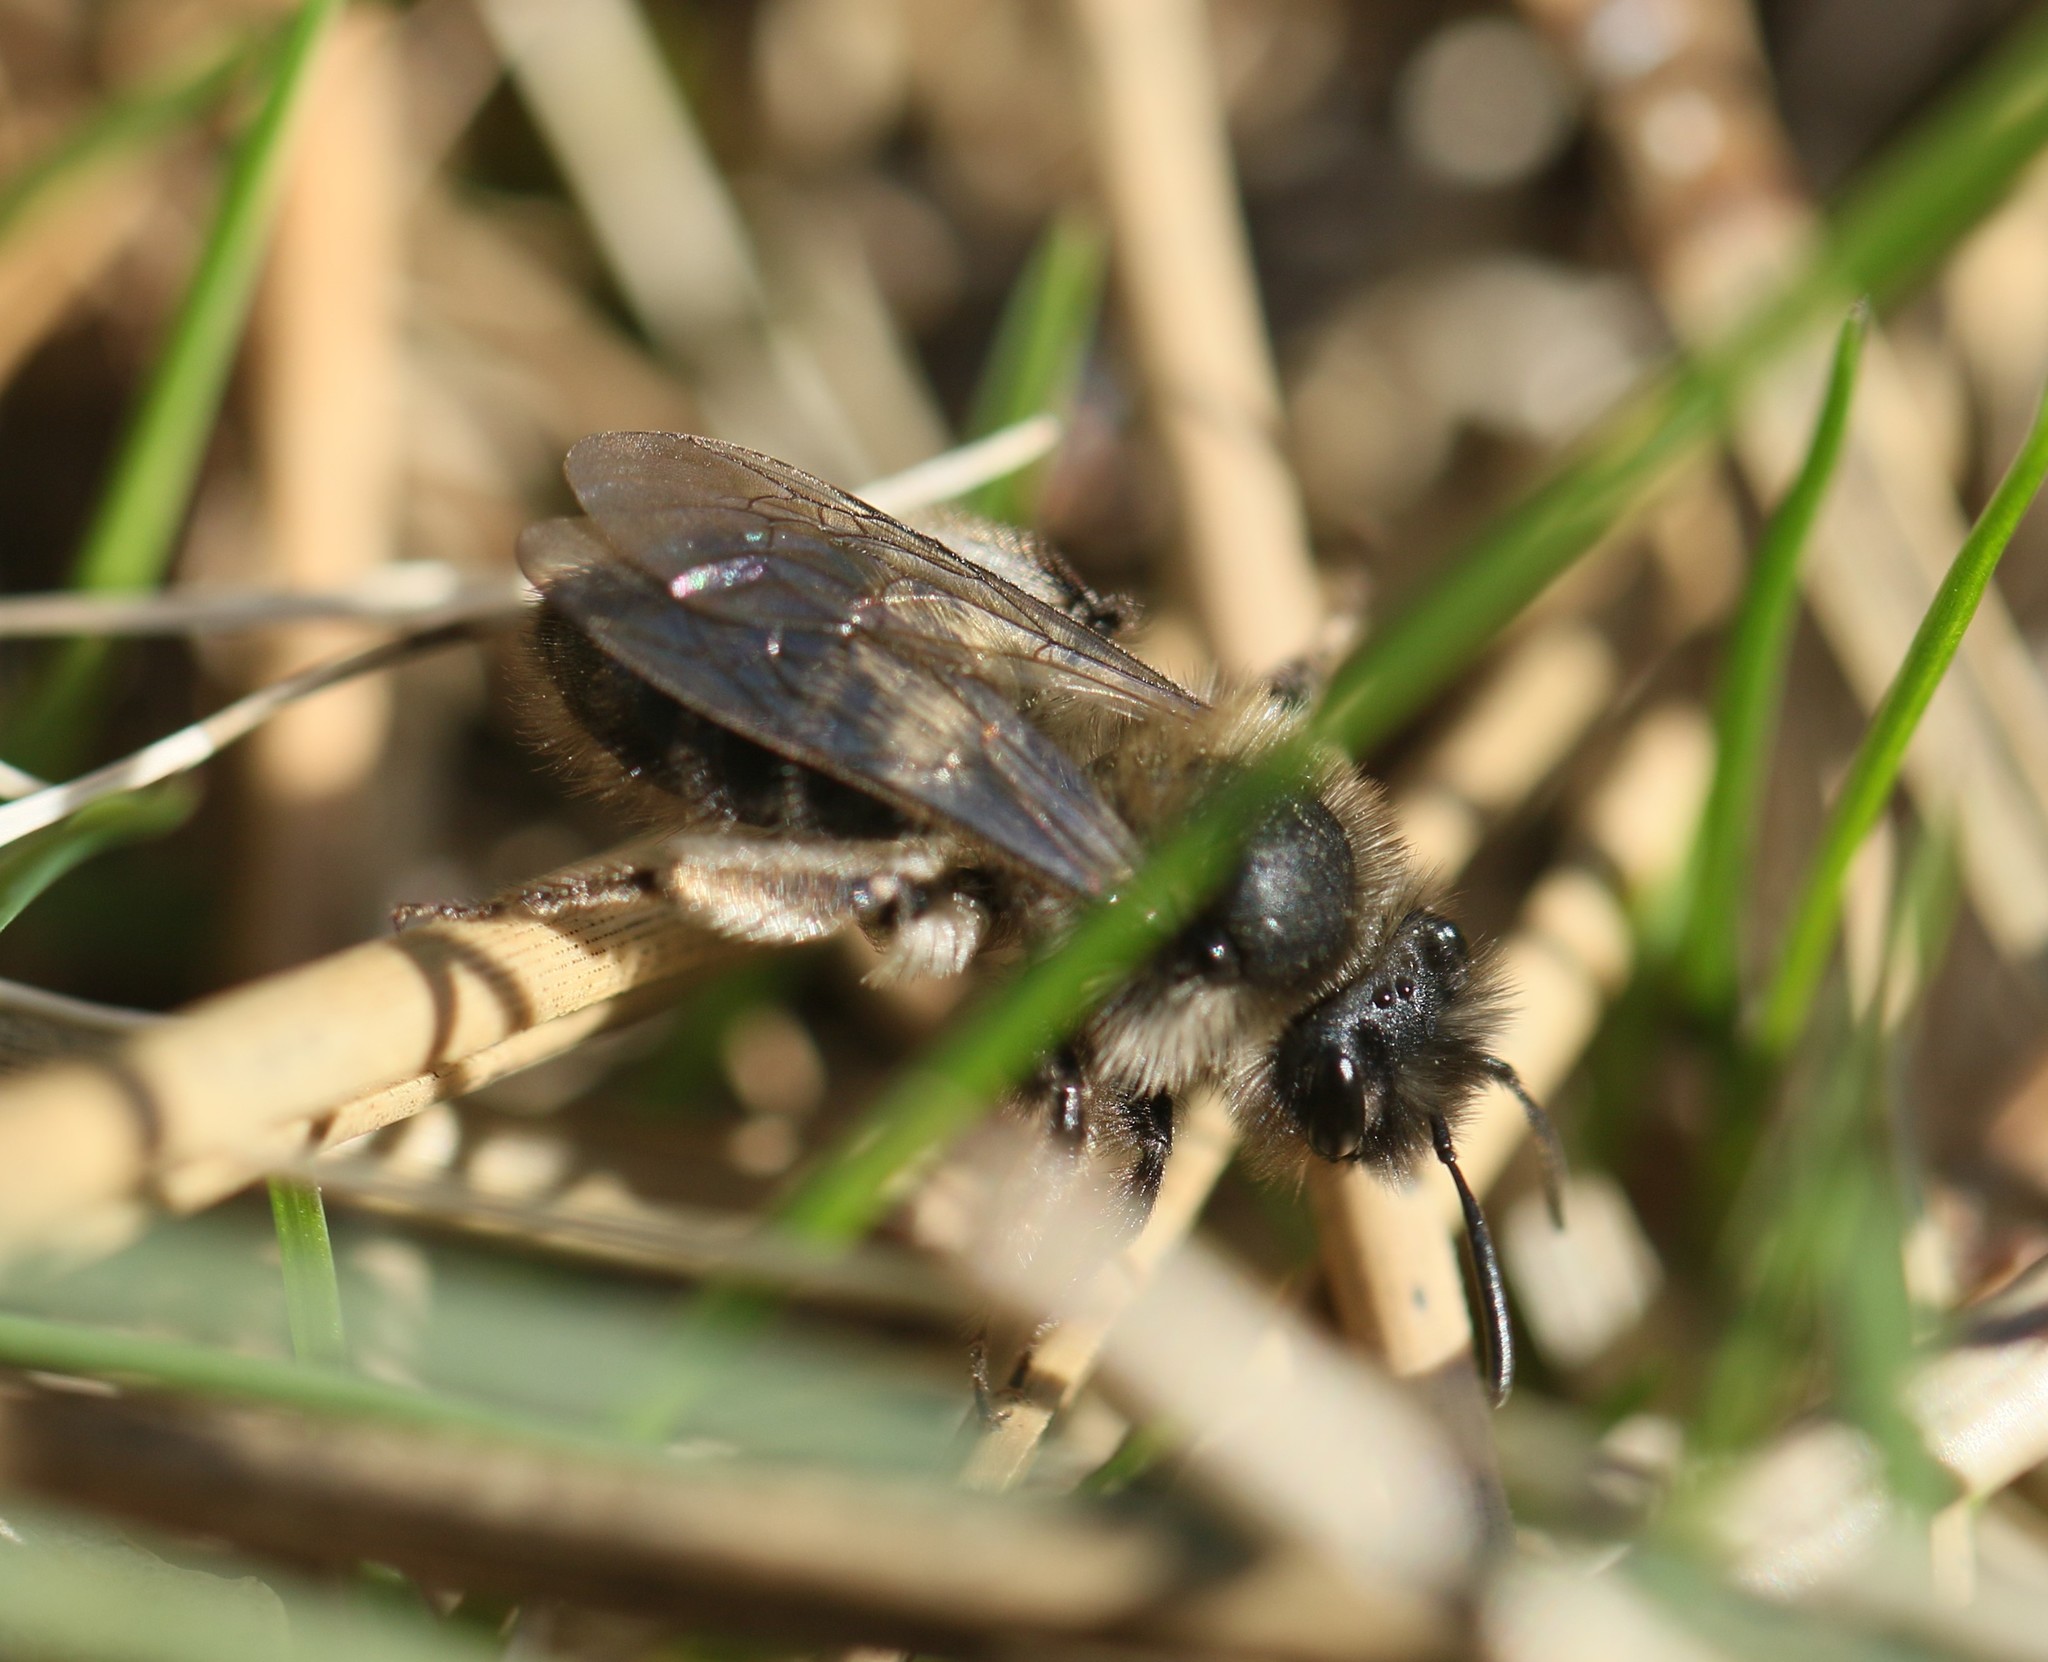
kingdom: Animalia
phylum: Arthropoda
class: Insecta
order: Hymenoptera
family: Andrenidae
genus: Andrena
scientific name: Andrena frigida
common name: Frigid mining bee
